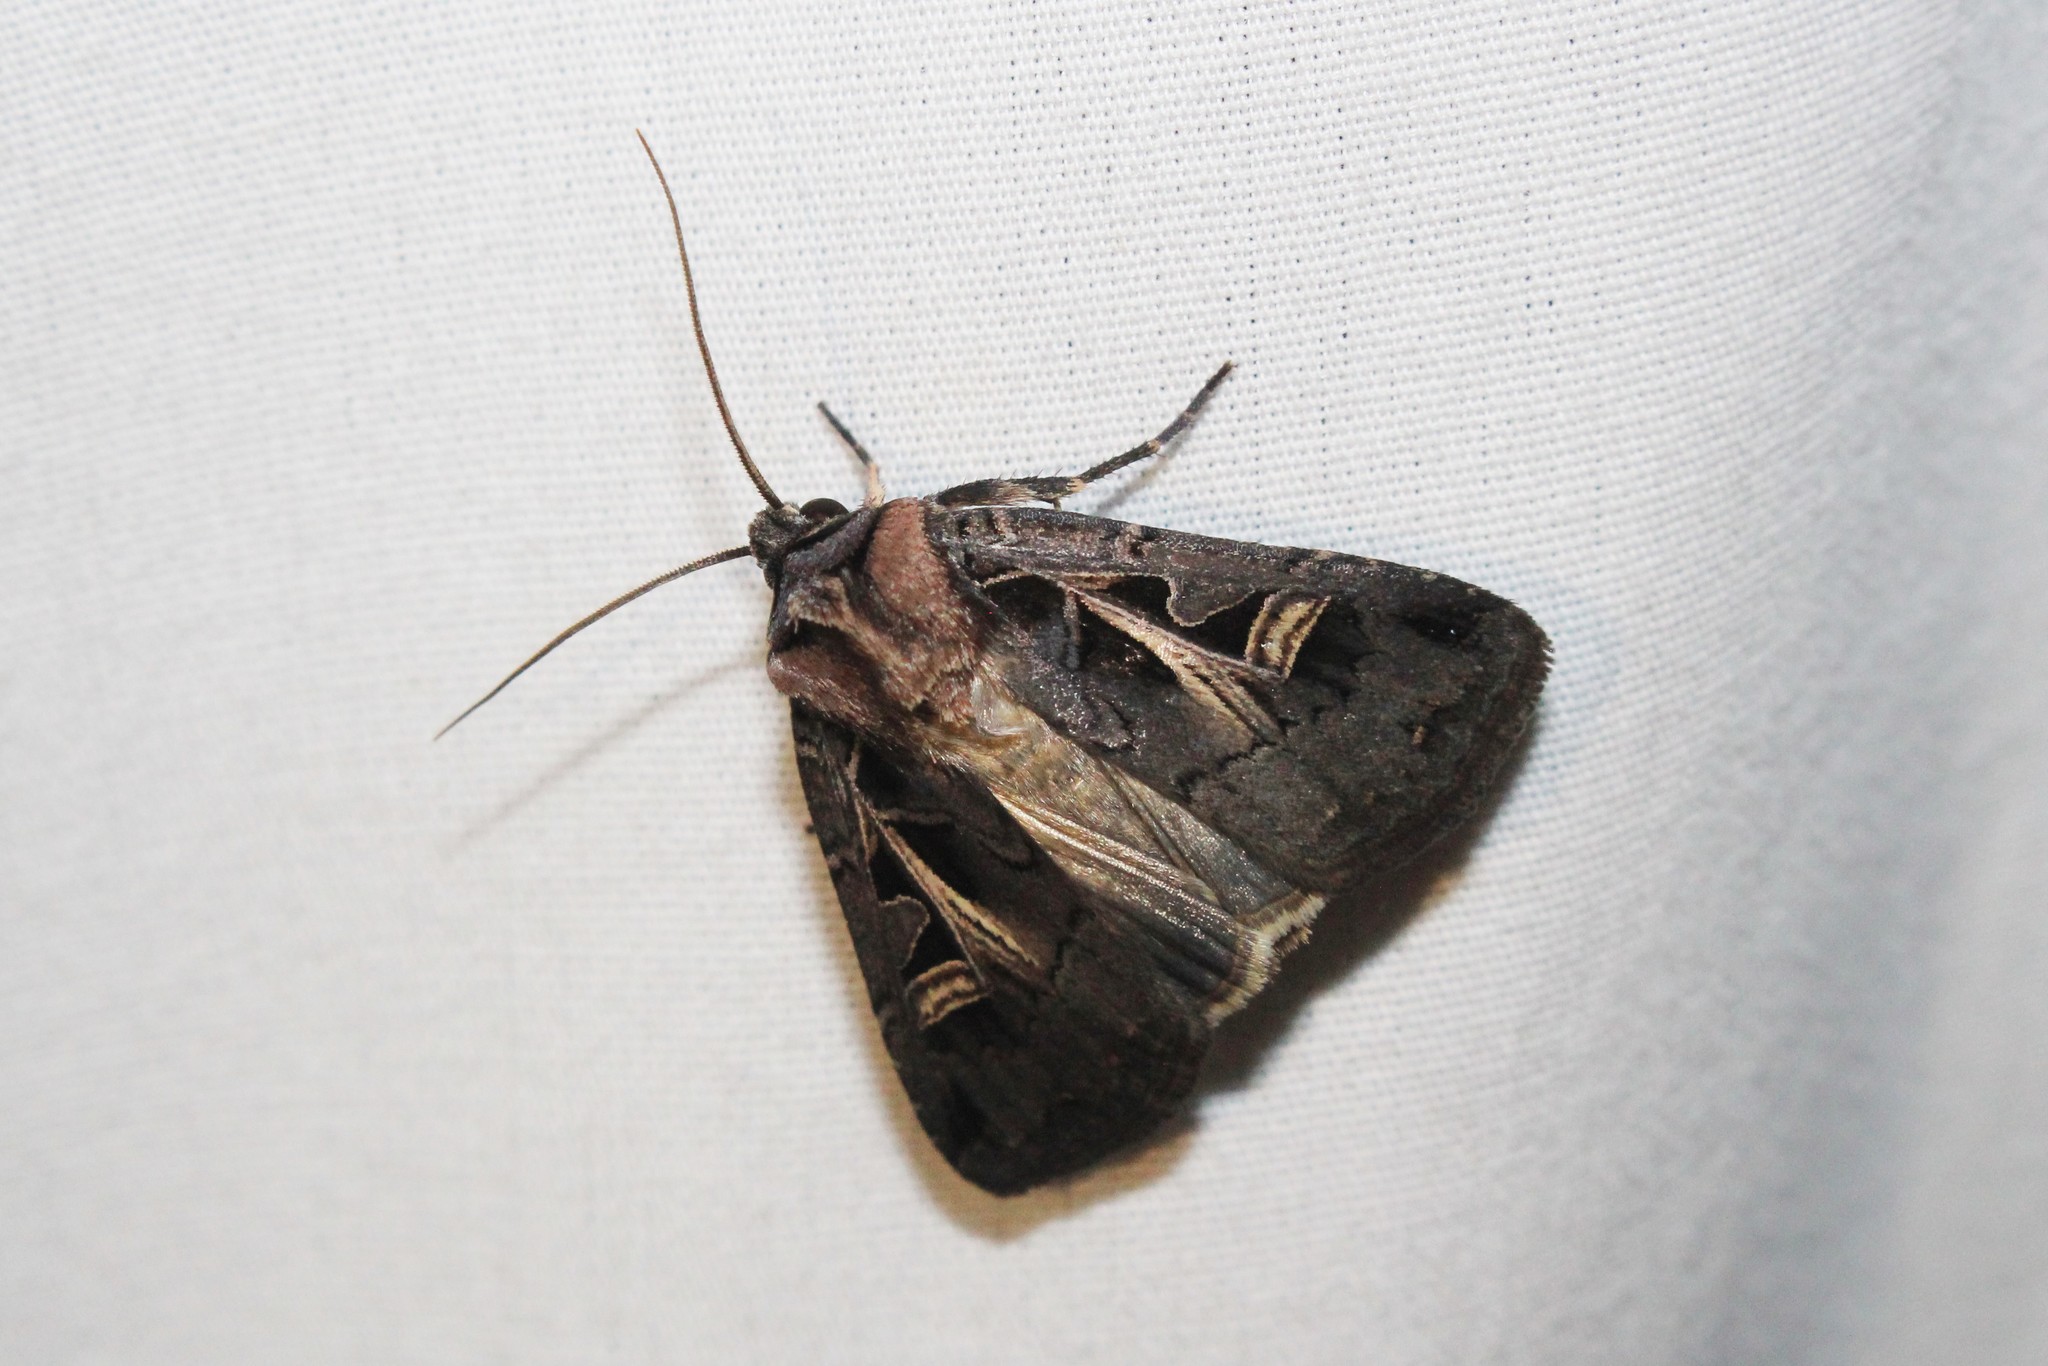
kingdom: Animalia
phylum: Arthropoda
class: Insecta
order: Lepidoptera
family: Noctuidae
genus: Feltia
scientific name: Feltia herilis
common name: Master's dart
